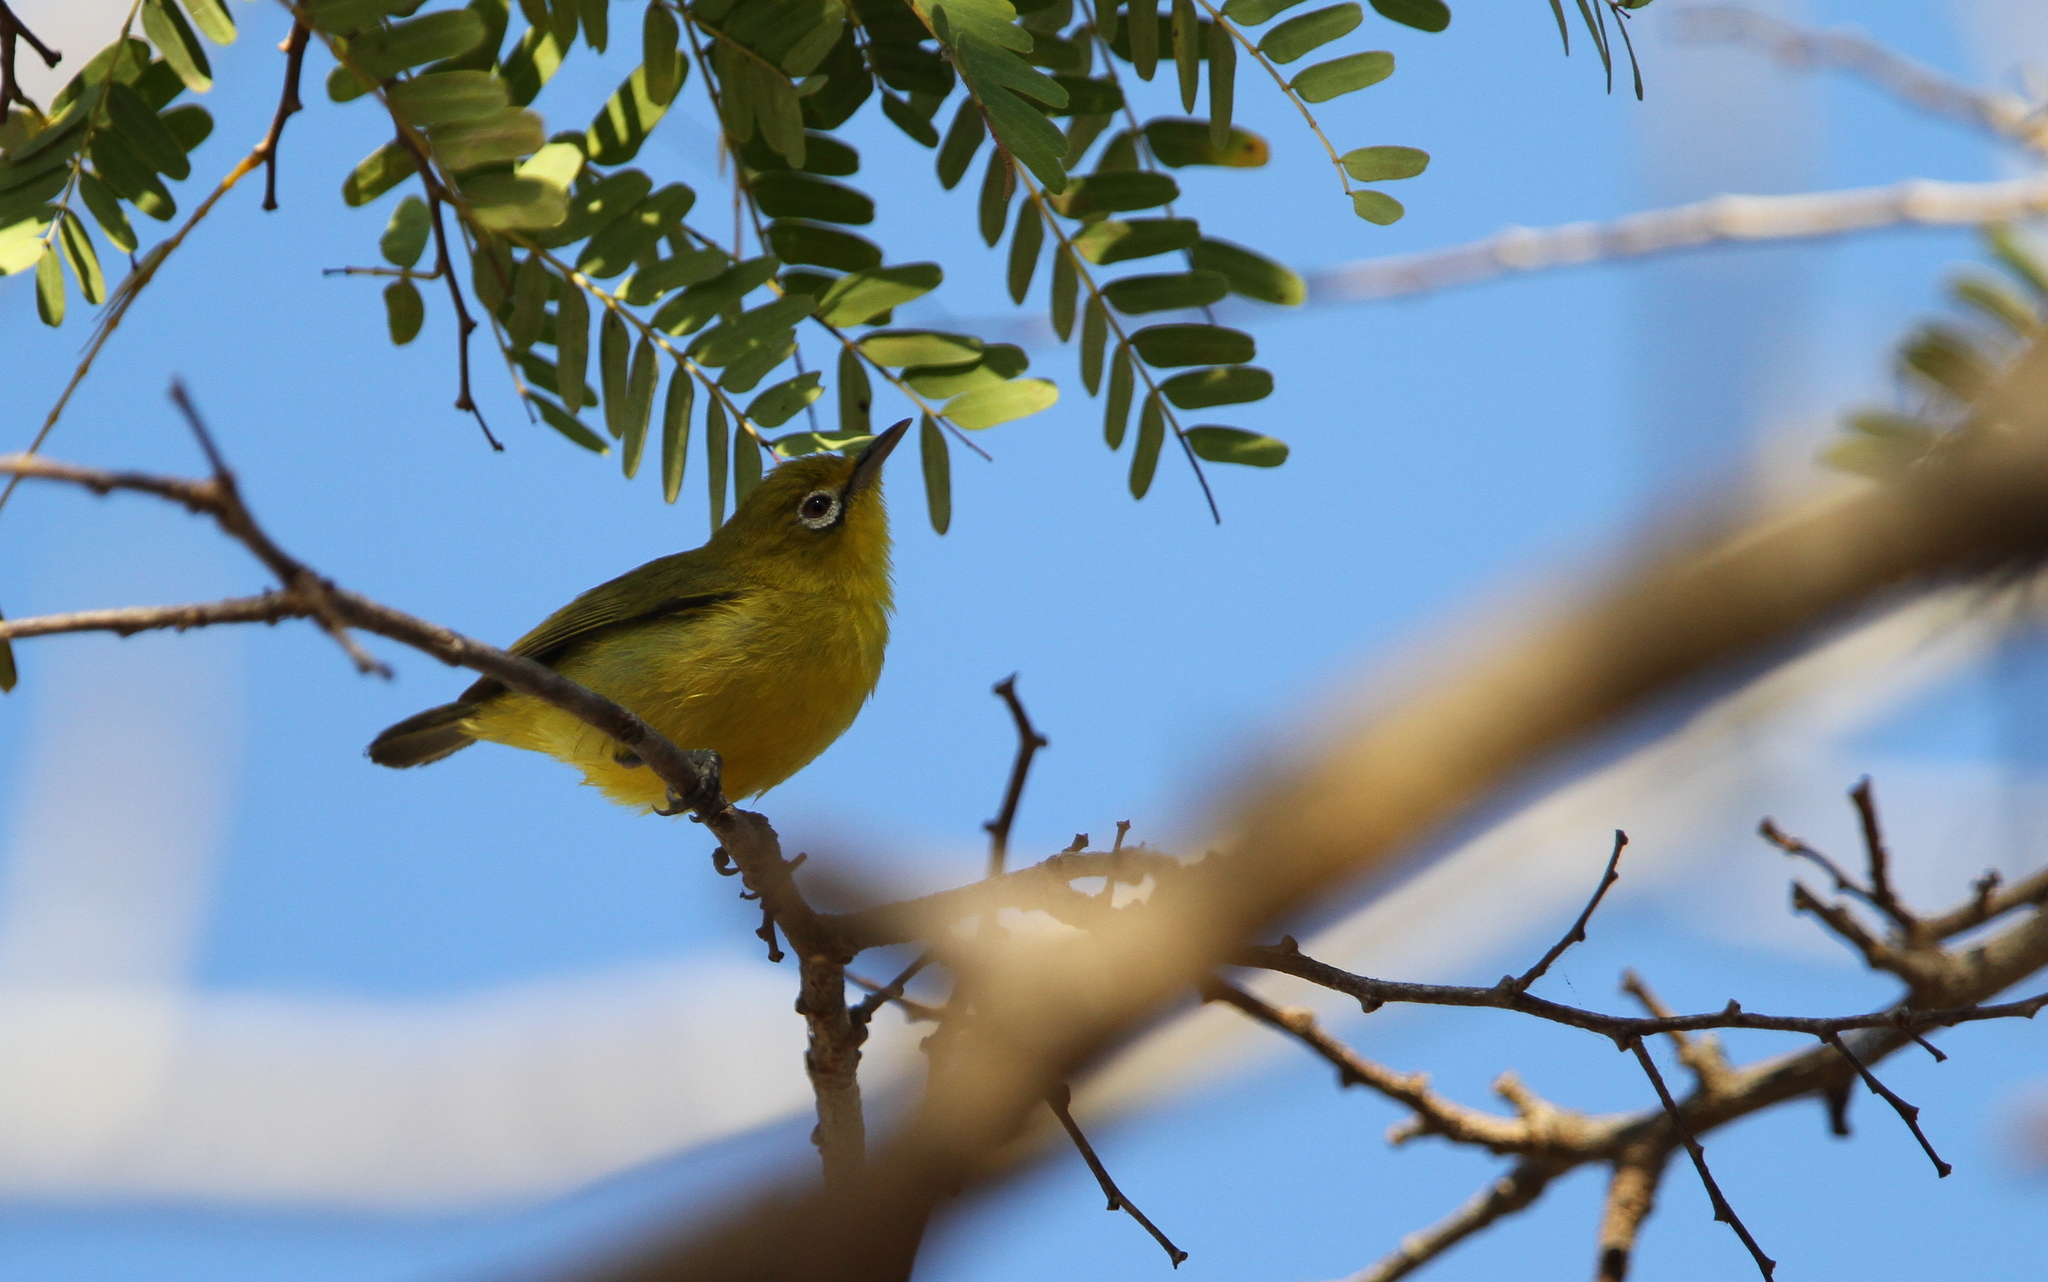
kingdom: Animalia
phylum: Chordata
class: Aves
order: Passeriformes
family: Zosteropidae
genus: Zosterops
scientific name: Zosterops chloris
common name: Lemon-bellied white-eye
